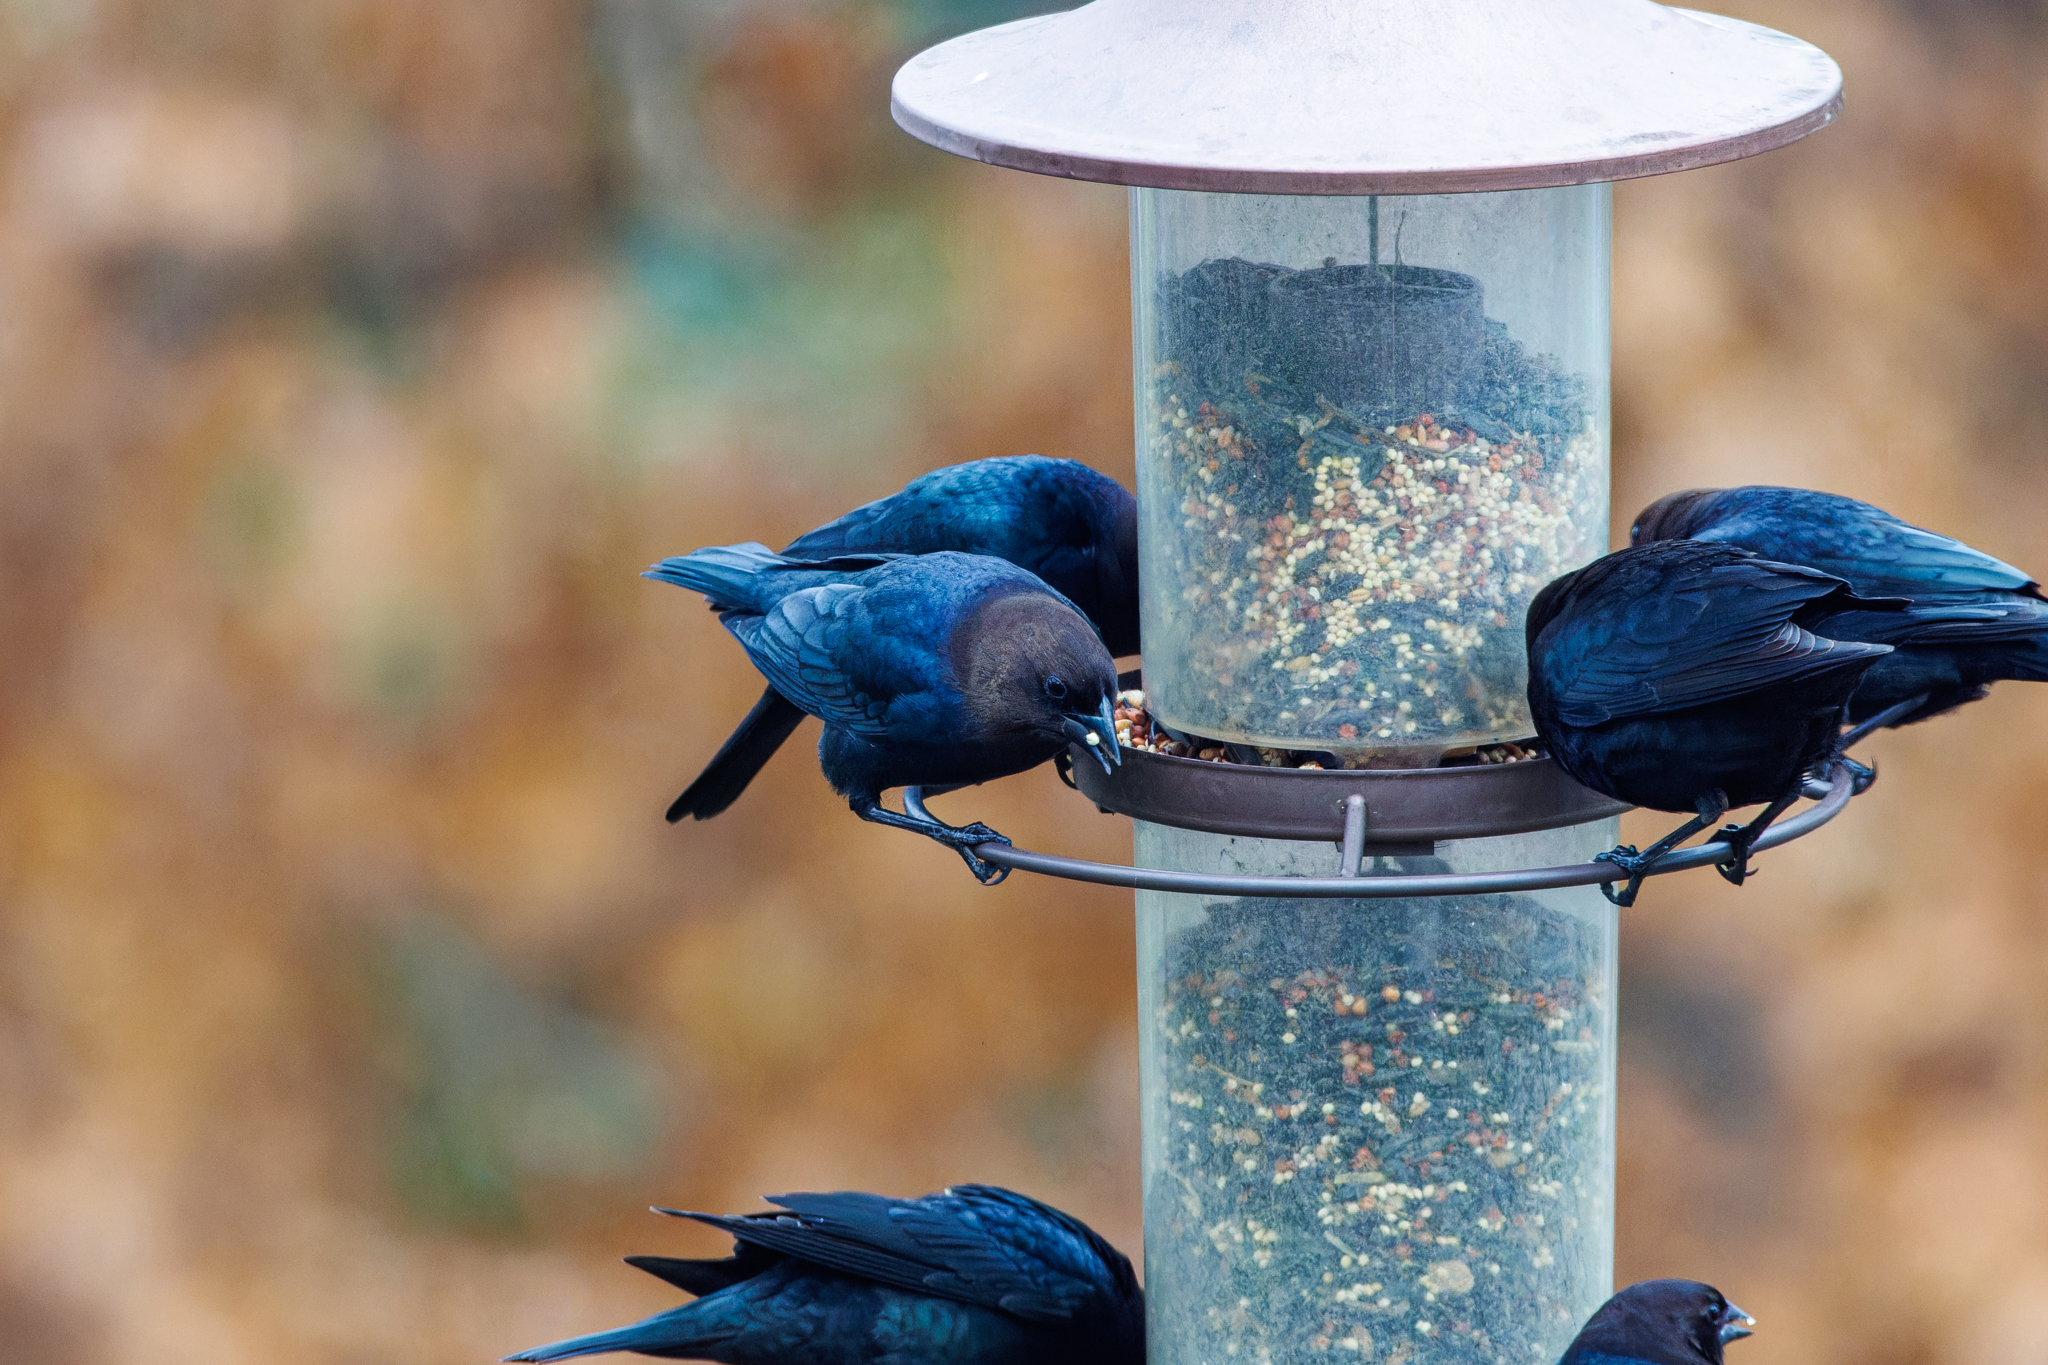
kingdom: Animalia
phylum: Chordata
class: Aves
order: Passeriformes
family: Icteridae
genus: Molothrus
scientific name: Molothrus ater
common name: Brown-headed cowbird
